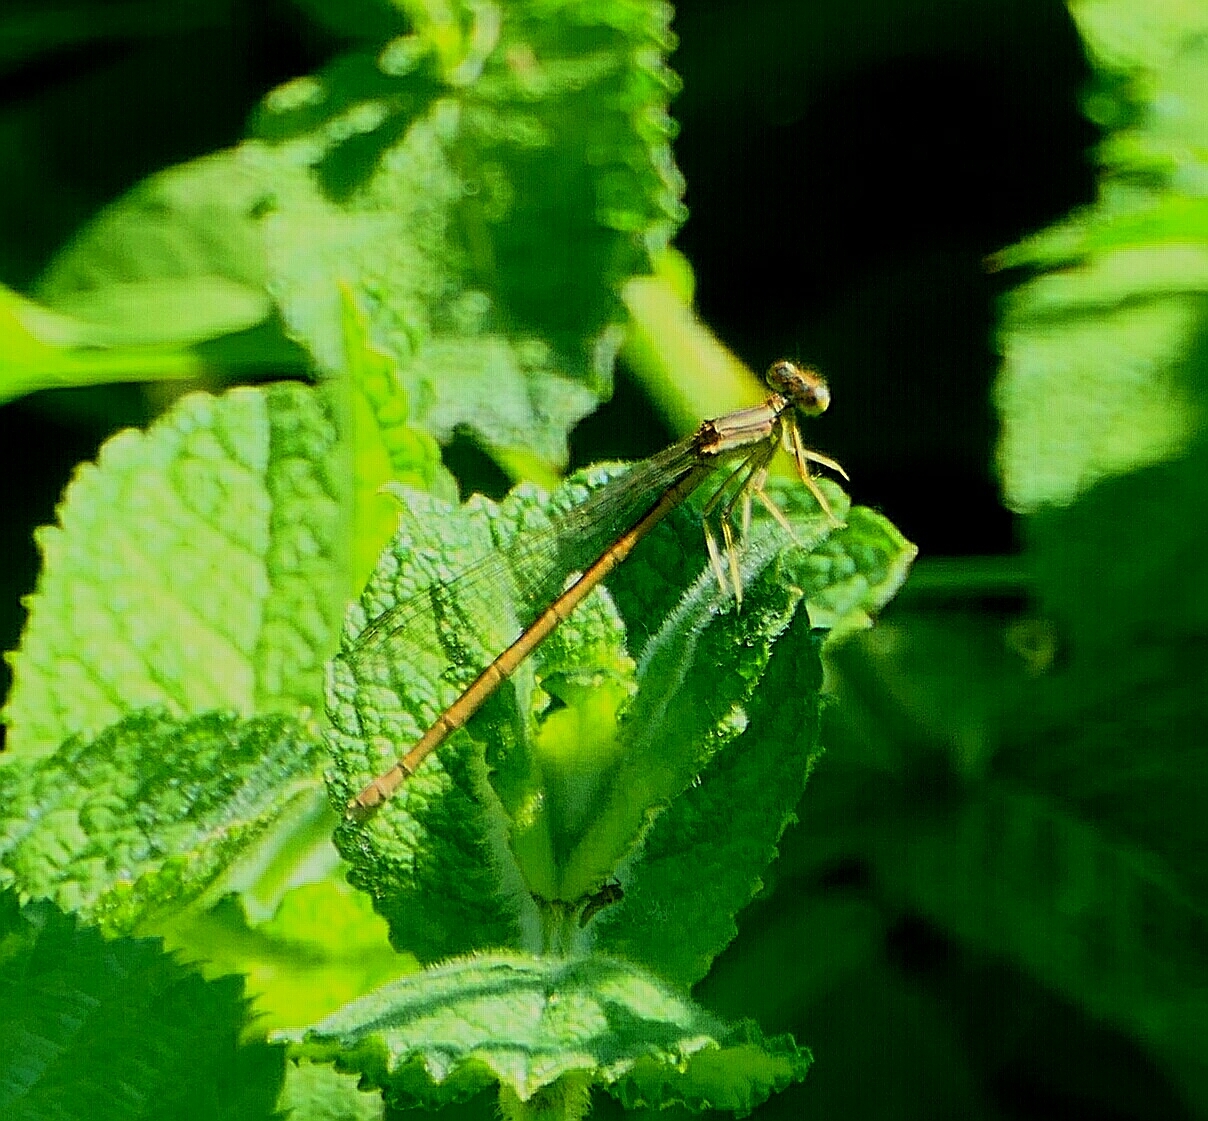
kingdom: Animalia
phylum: Arthropoda
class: Insecta
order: Odonata
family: Platycnemididae
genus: Platycnemis
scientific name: Platycnemis acutipennis
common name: Orange featherleg
